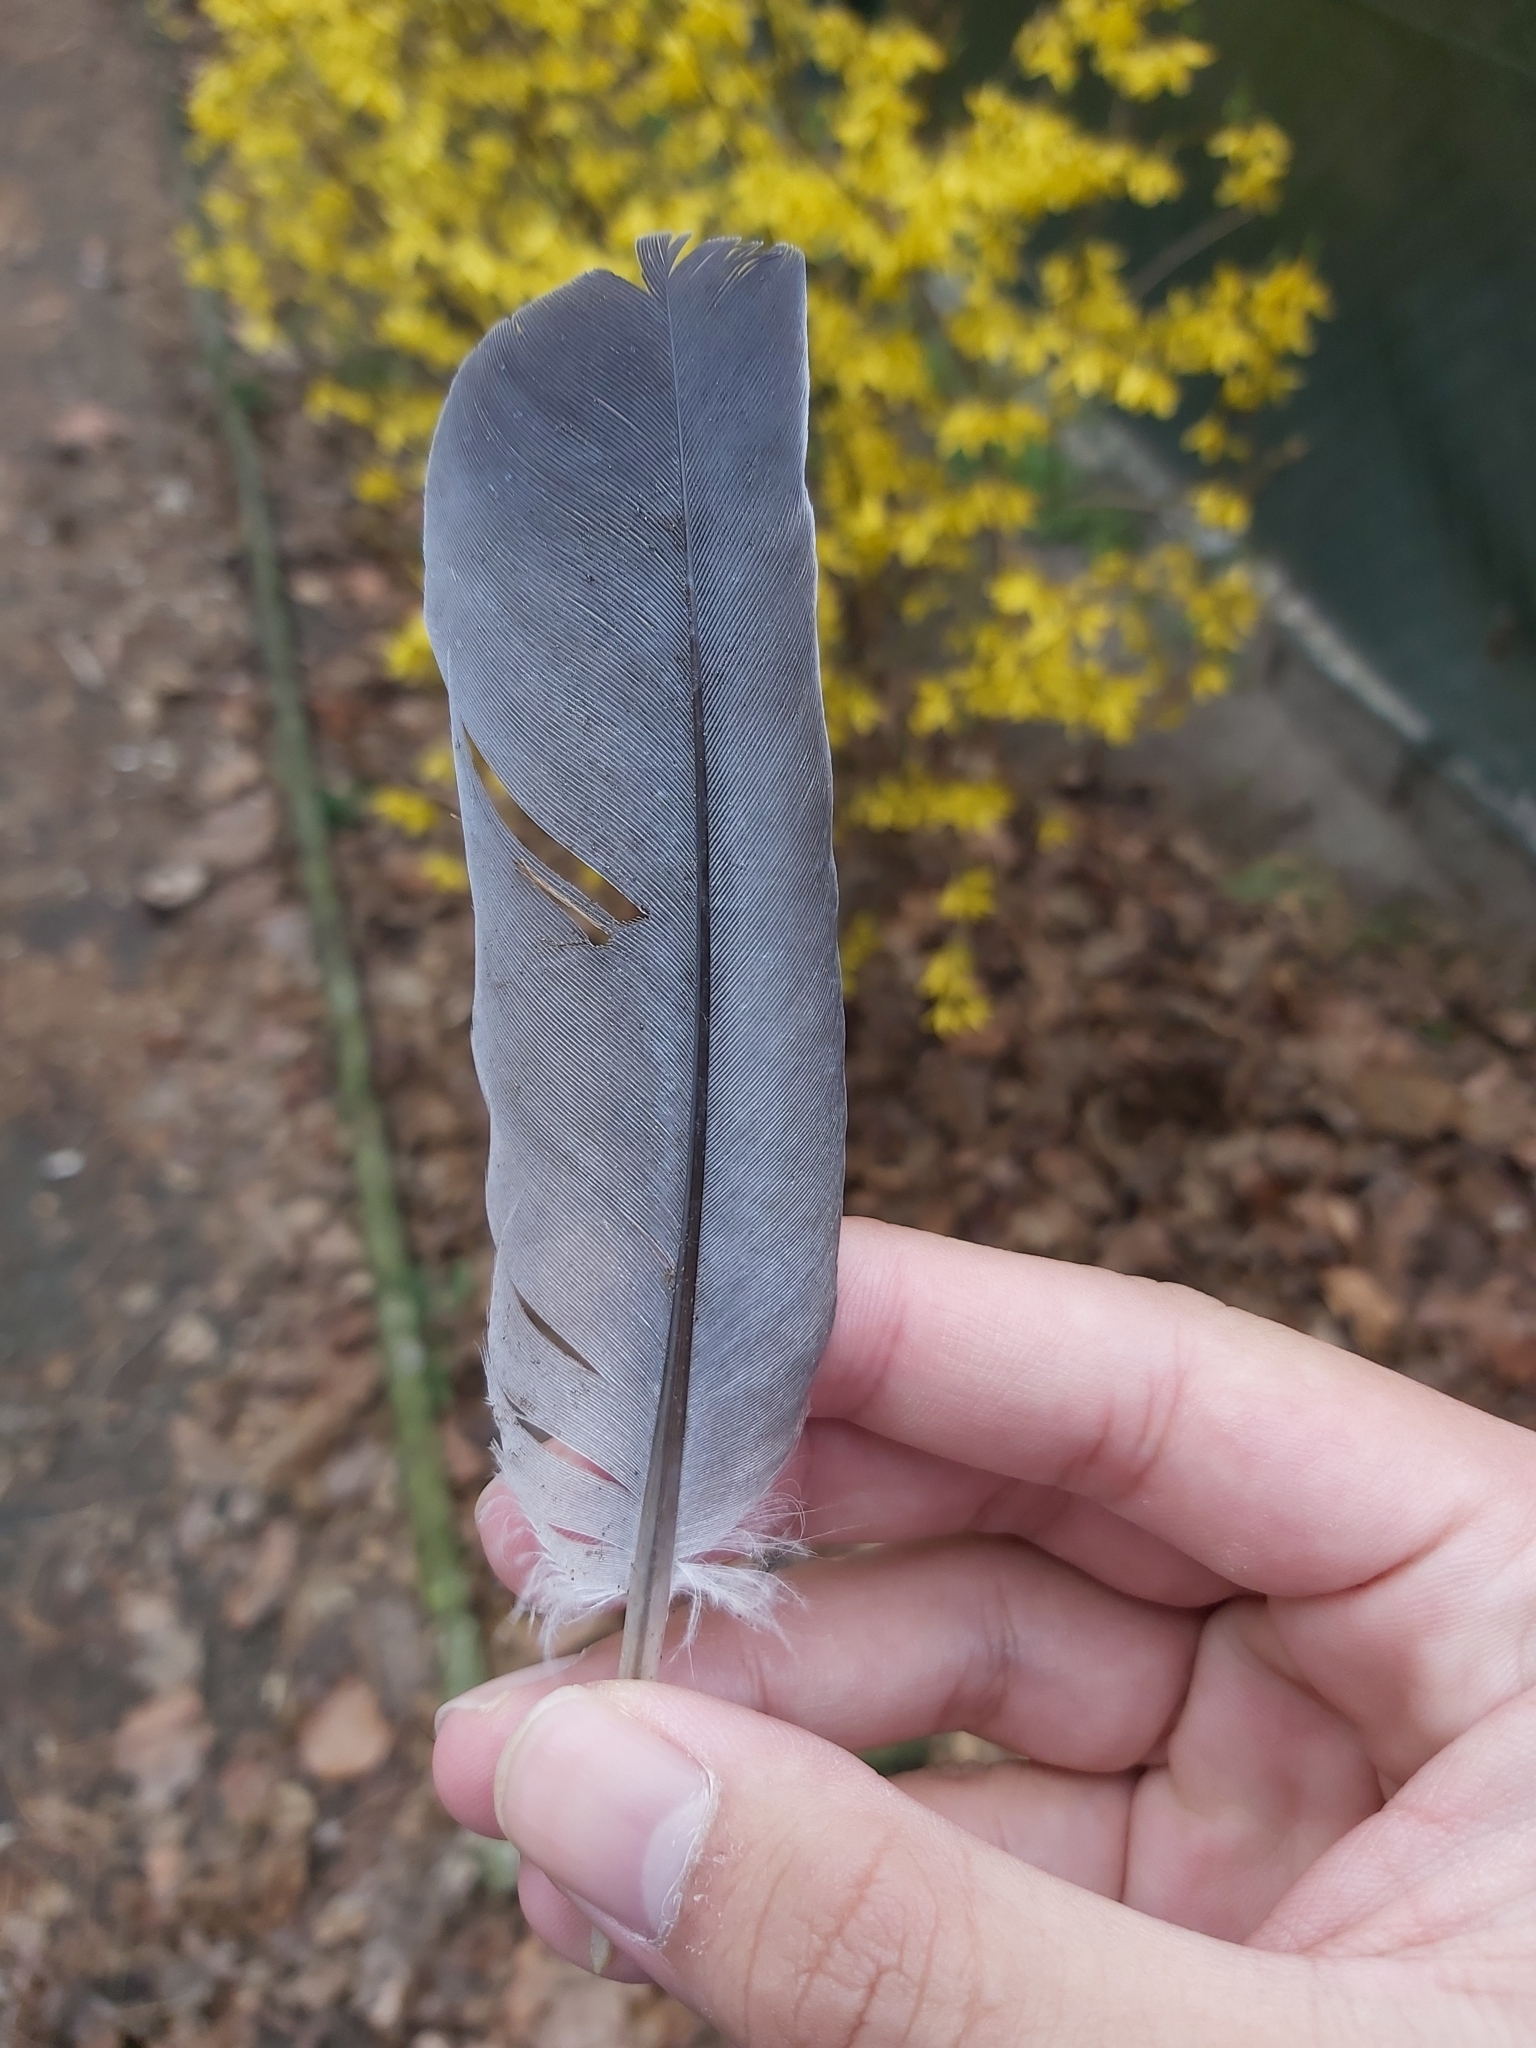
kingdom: Animalia
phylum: Chordata
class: Aves
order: Columbiformes
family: Columbidae
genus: Columba
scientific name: Columba palumbus
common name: Common wood pigeon
